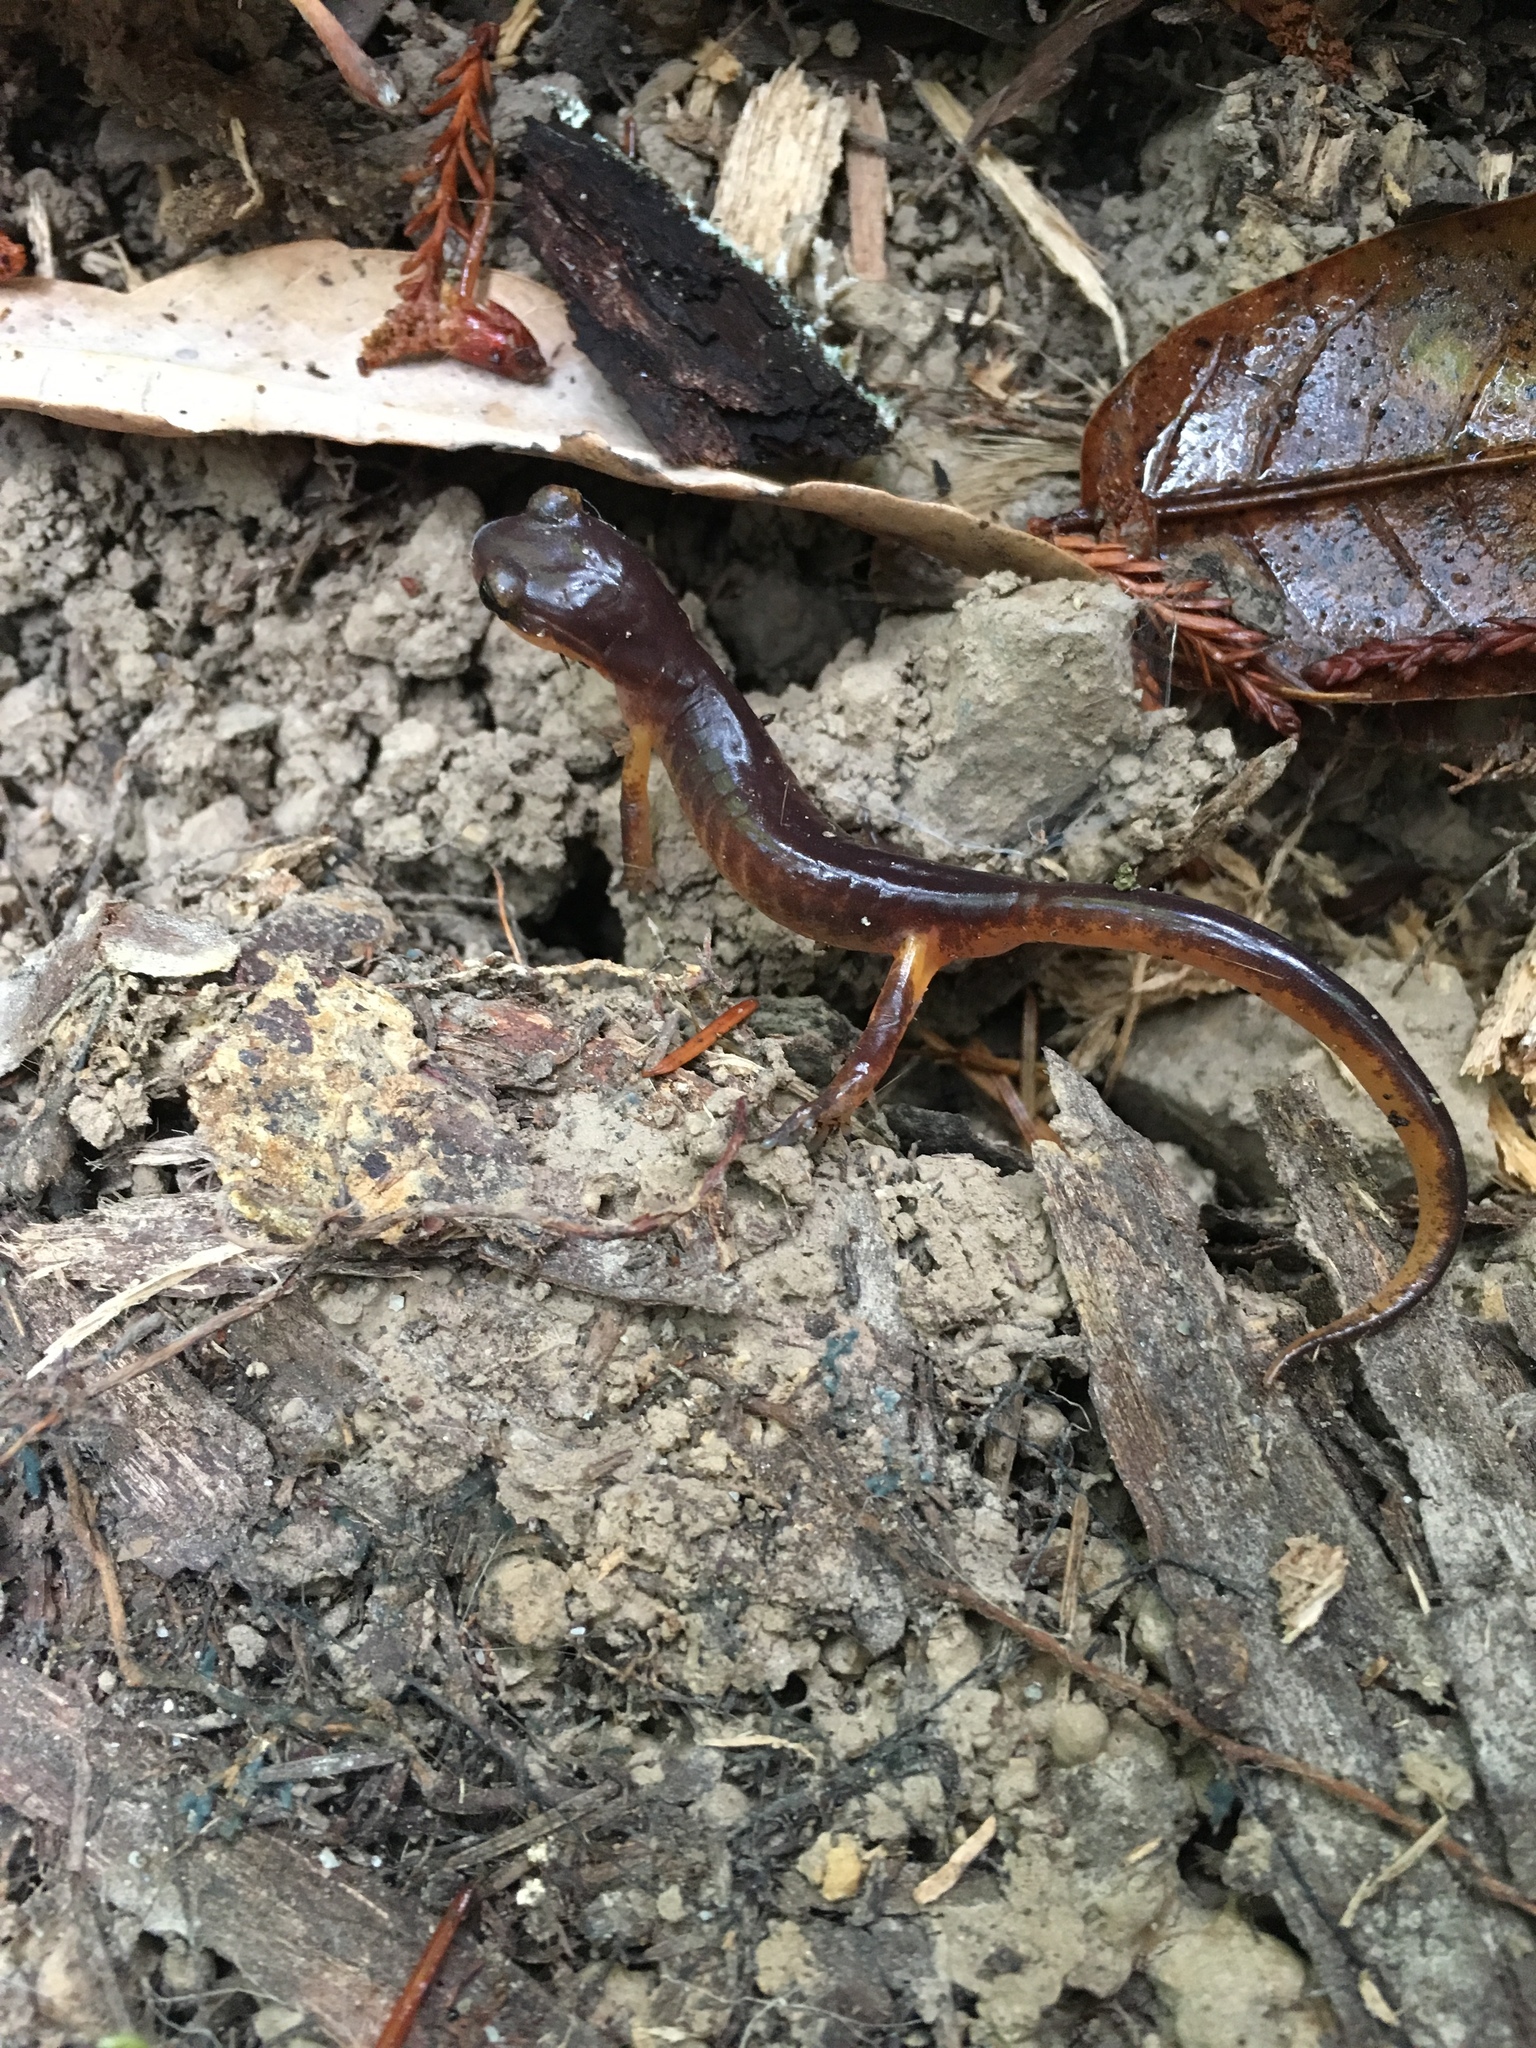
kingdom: Animalia
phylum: Chordata
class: Amphibia
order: Caudata
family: Plethodontidae
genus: Ensatina
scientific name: Ensatina eschscholtzii
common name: Ensatina
